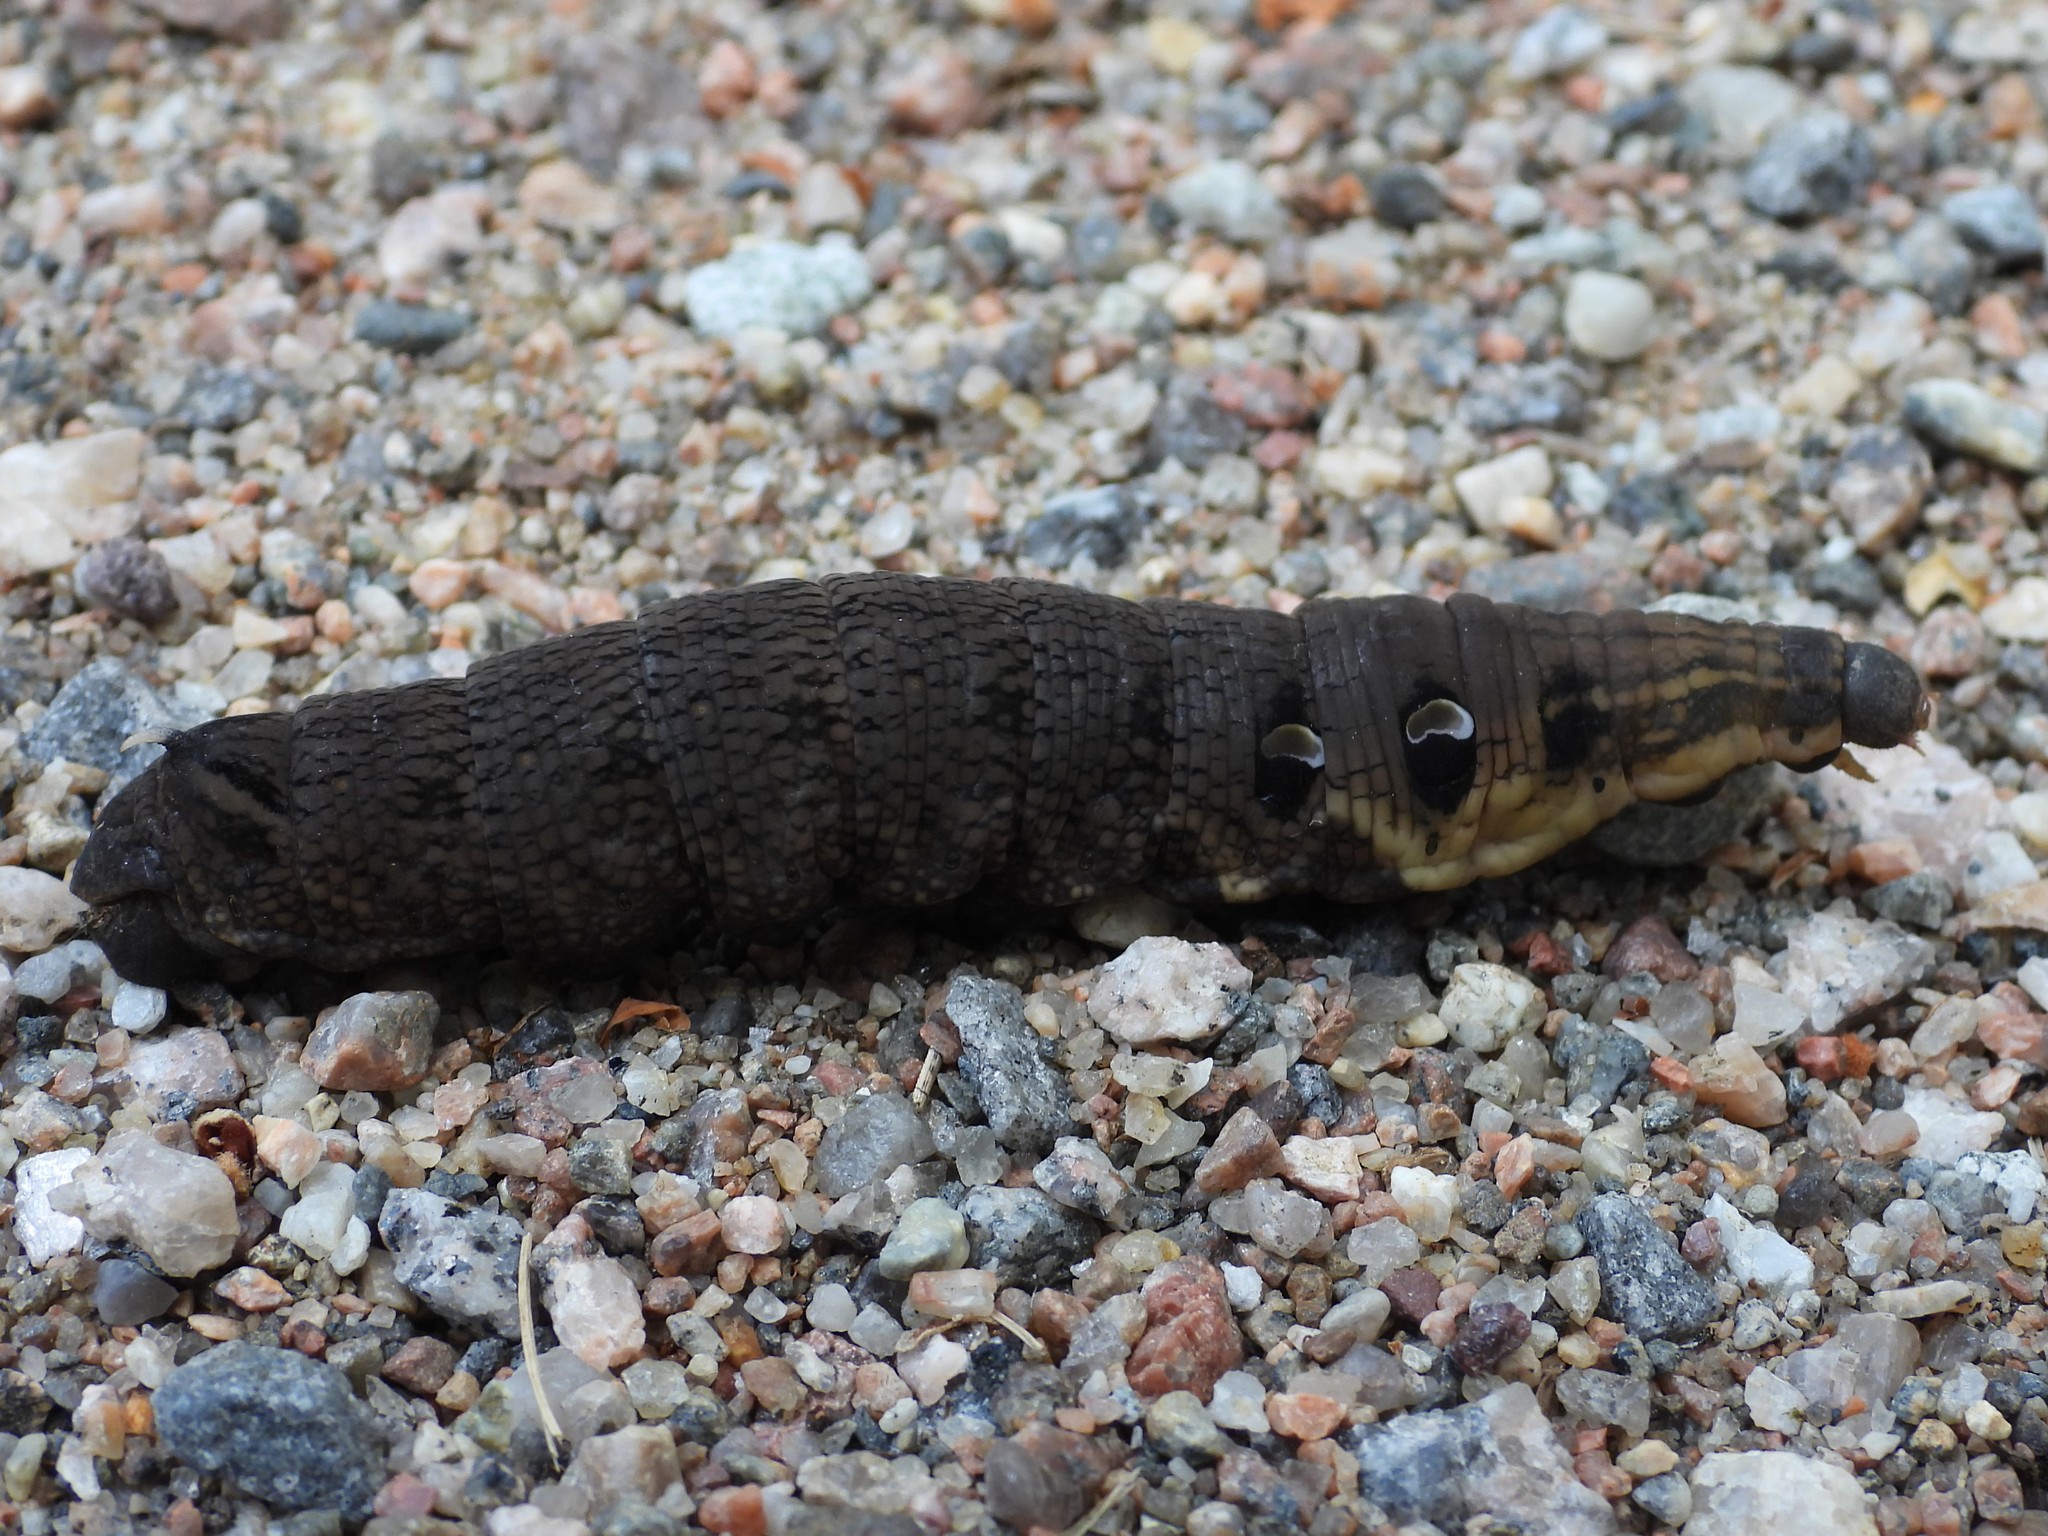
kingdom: Animalia
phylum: Arthropoda
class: Insecta
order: Lepidoptera
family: Sphingidae
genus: Deilephila
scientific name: Deilephila elpenor
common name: Elephant hawk-moth
